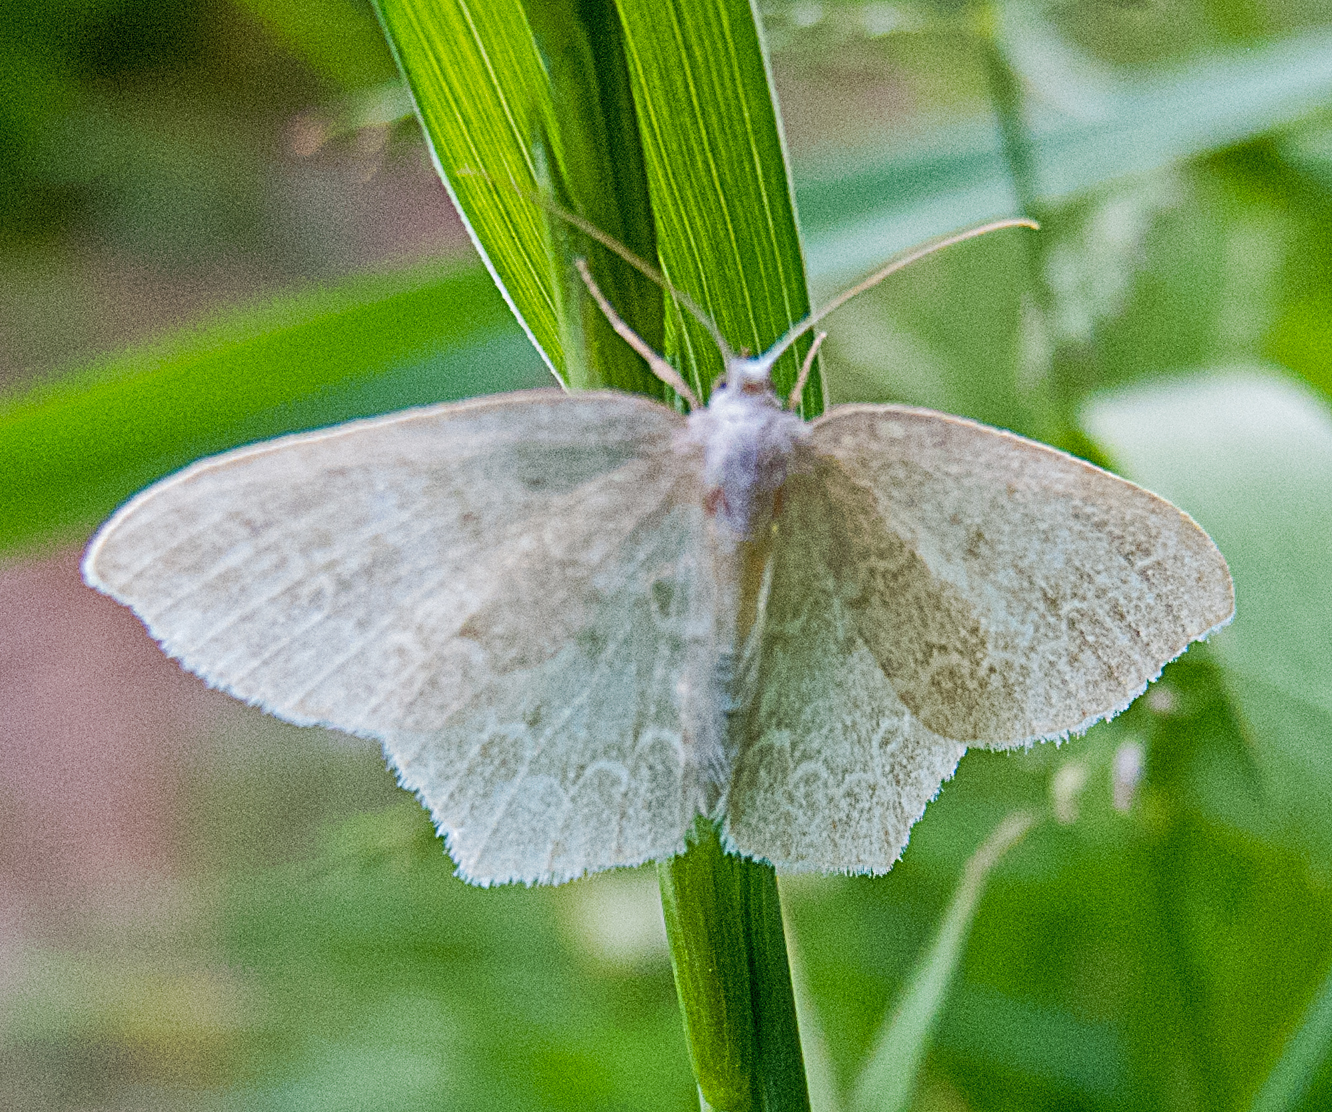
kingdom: Animalia
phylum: Arthropoda
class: Insecta
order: Lepidoptera
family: Geometridae
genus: Jodis
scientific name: Jodis putata
